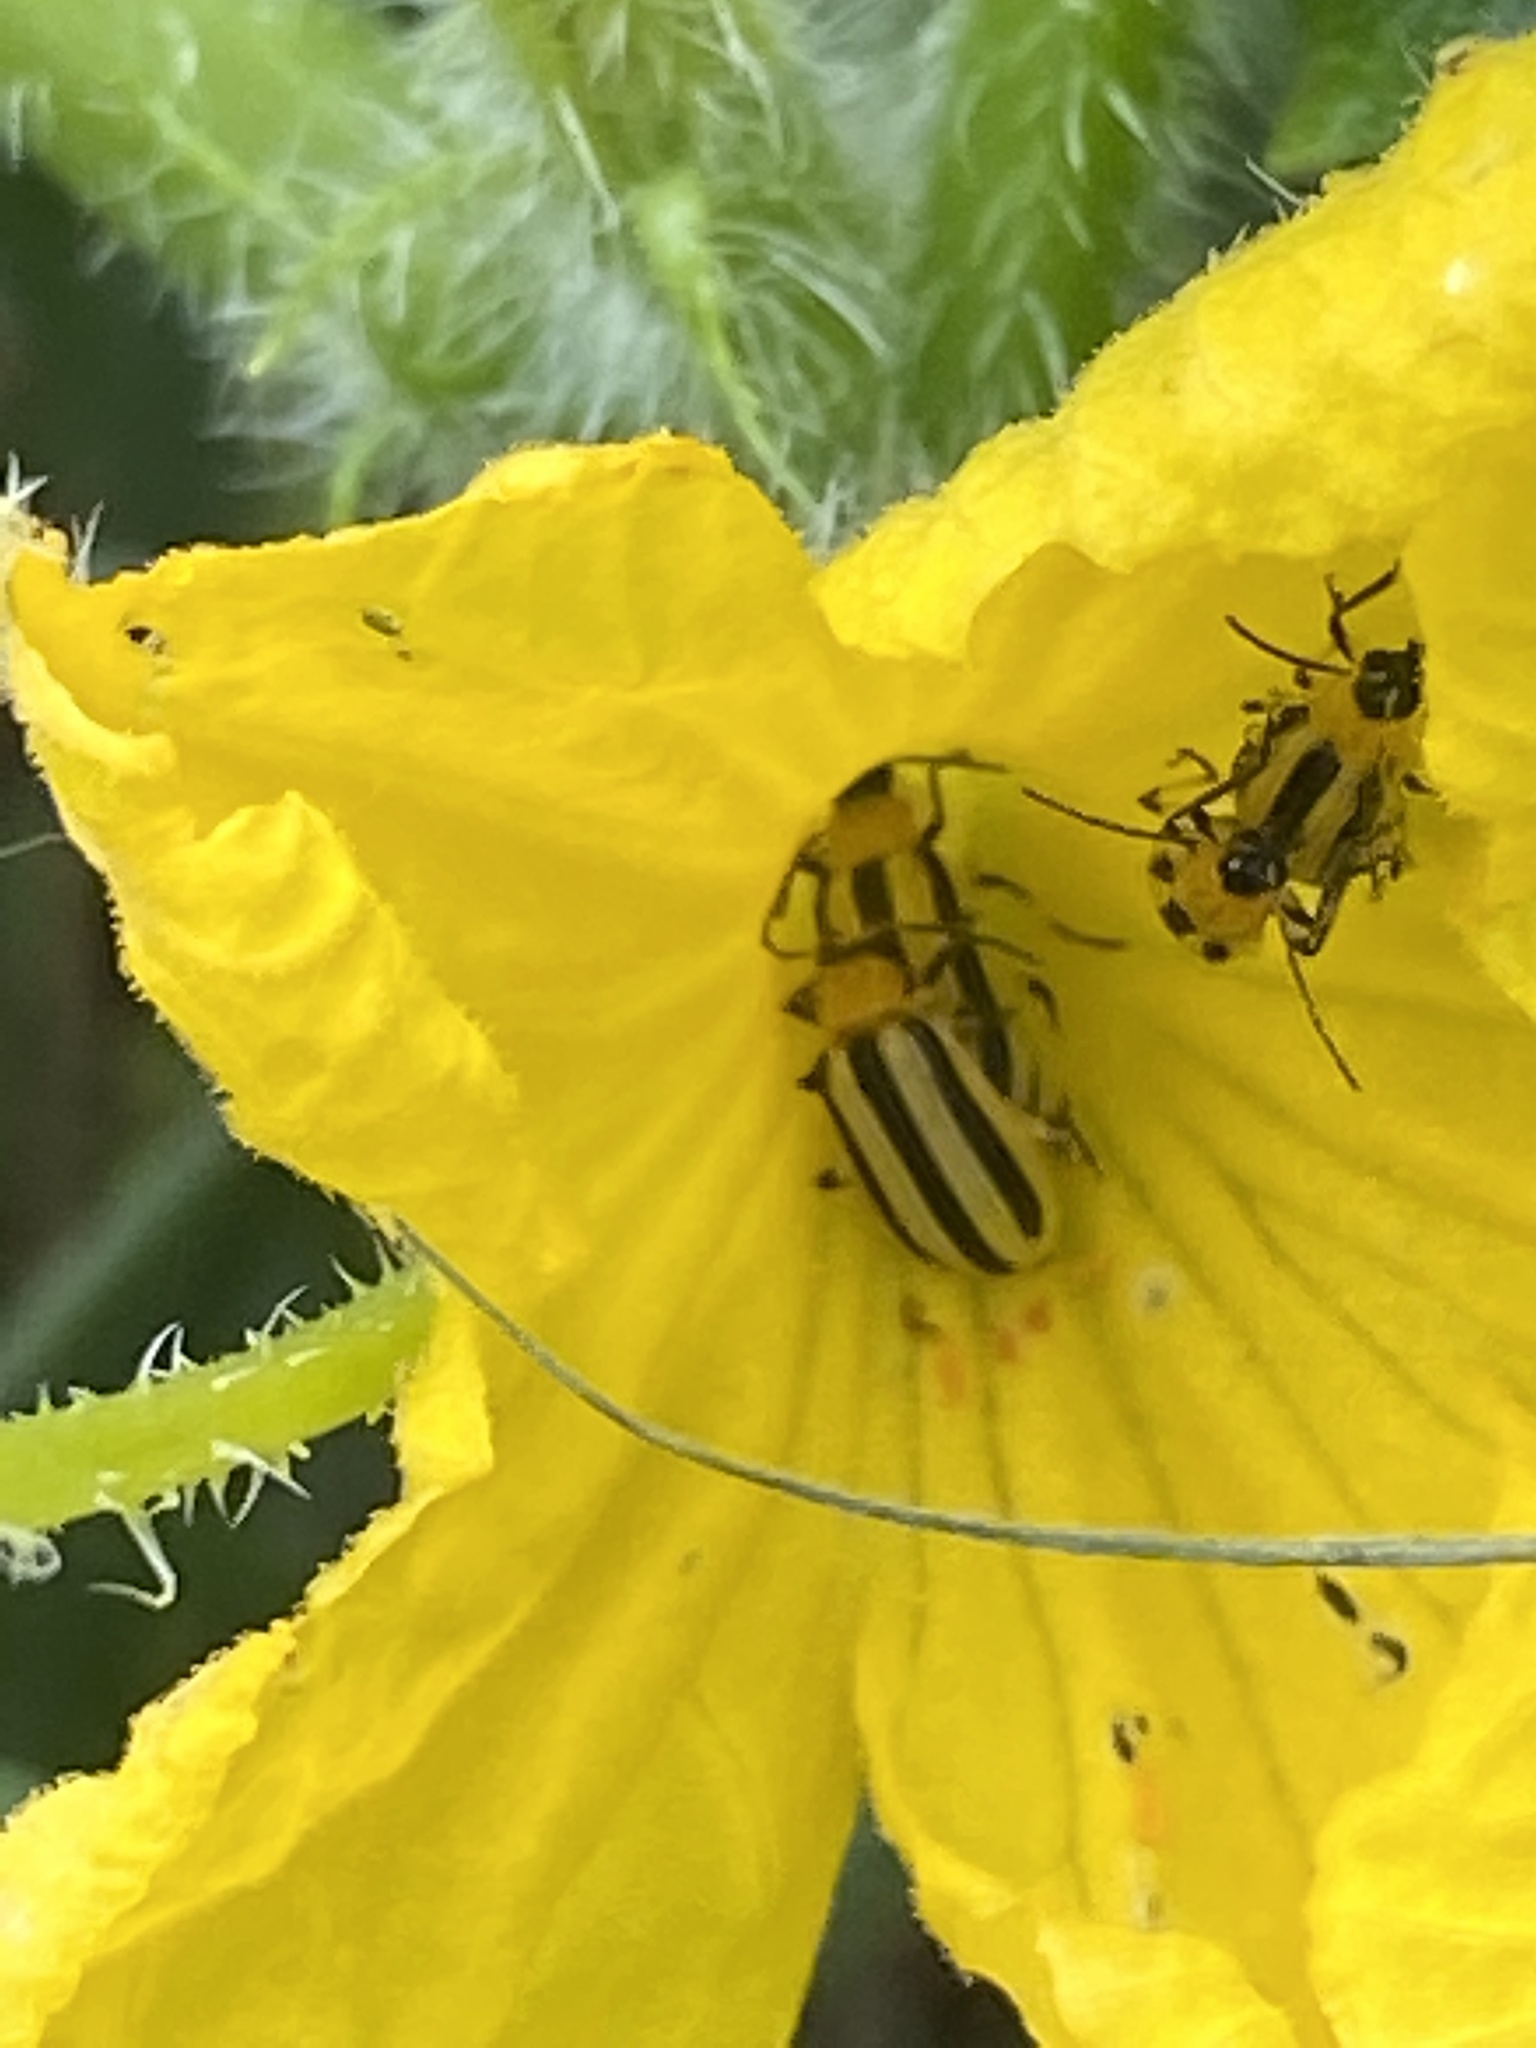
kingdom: Animalia
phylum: Arthropoda
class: Insecta
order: Coleoptera
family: Chrysomelidae
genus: Acalymma
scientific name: Acalymma vittatum
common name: Striped cucumber beetle
